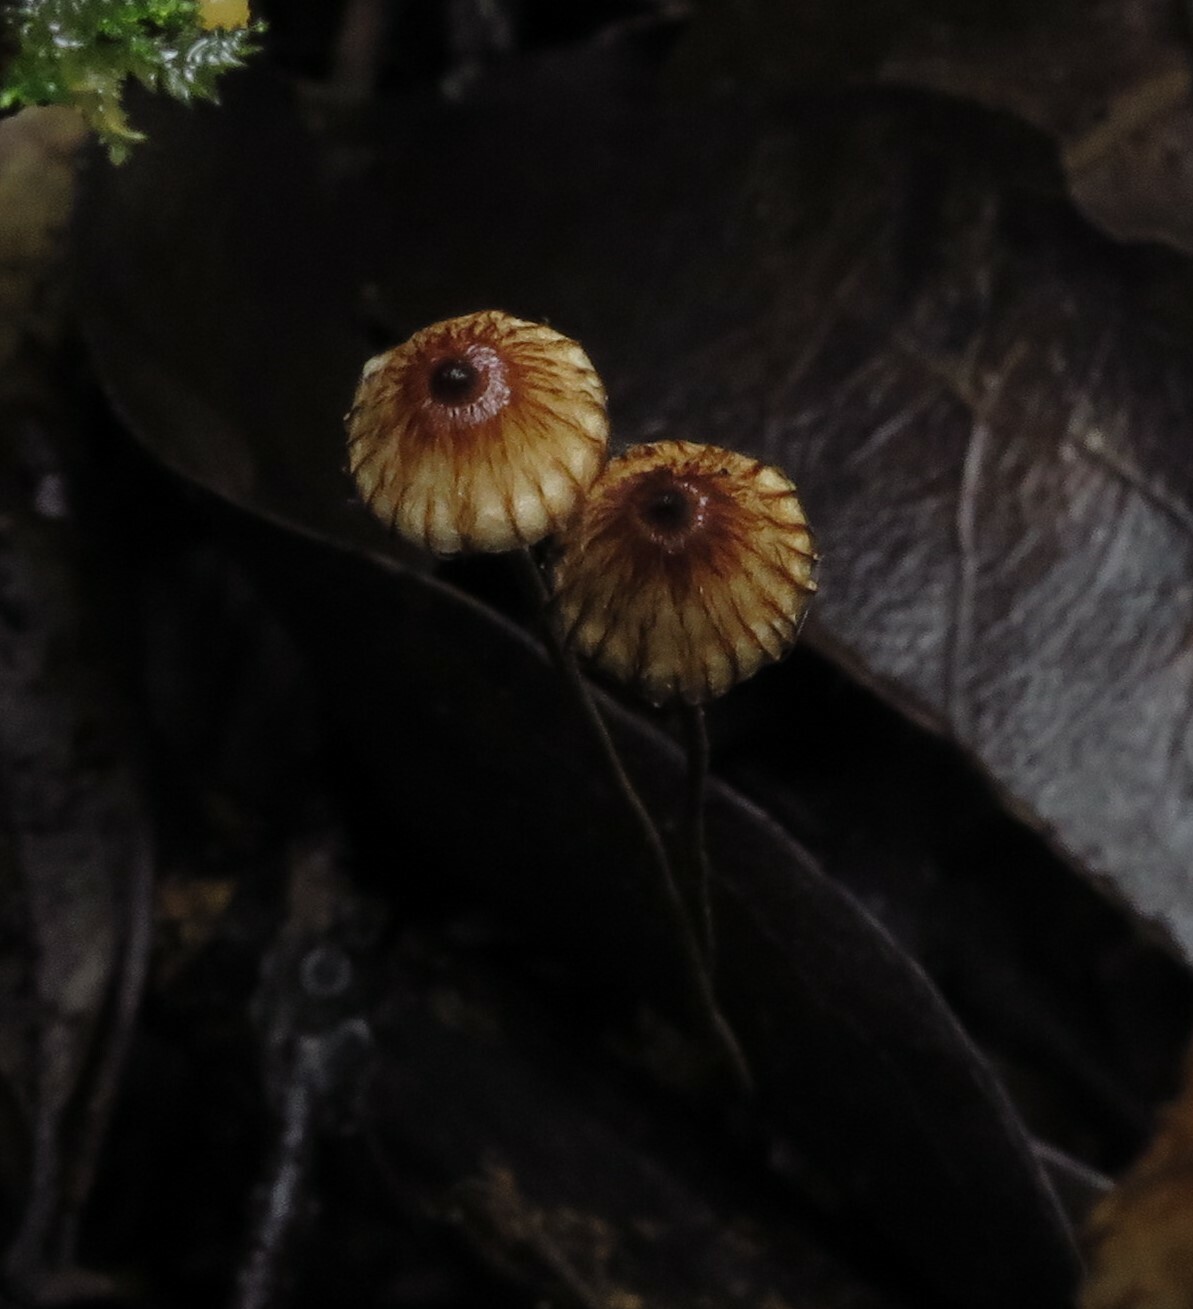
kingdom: Fungi
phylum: Basidiomycota
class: Agaricomycetes
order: Agaricales
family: Marasmiaceae
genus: Crinipellis
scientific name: Crinipellis procera
